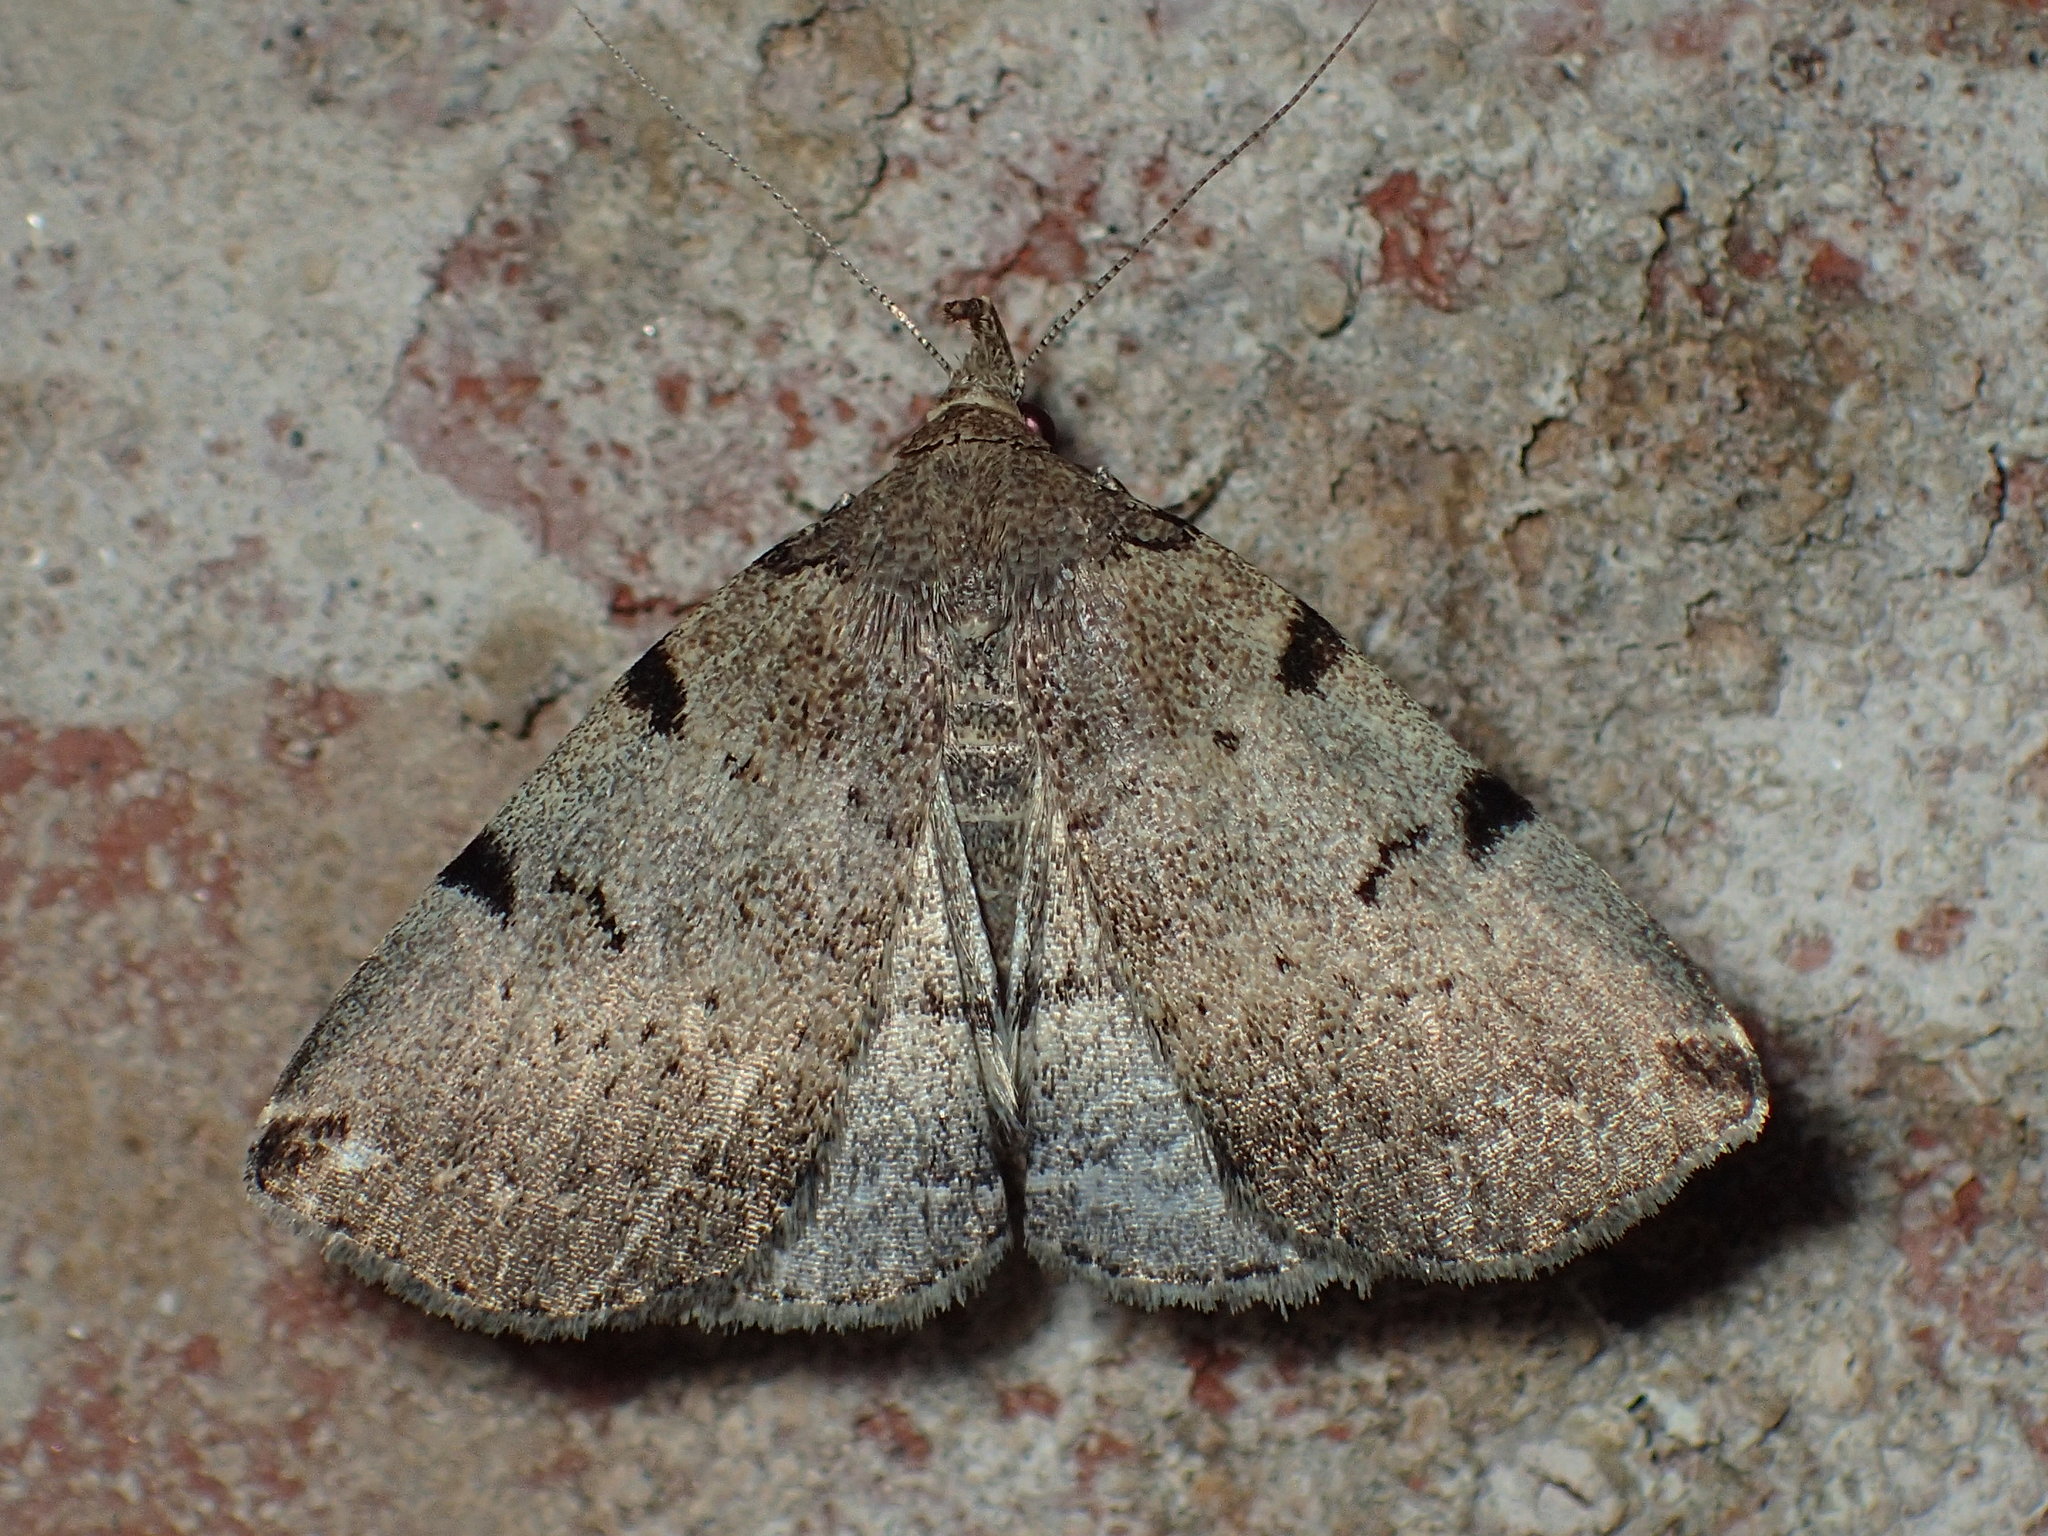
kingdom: Animalia
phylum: Arthropoda
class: Insecta
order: Lepidoptera
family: Erebidae
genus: Zanclognatha
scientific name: Zanclognatha lituralis
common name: Lettered fan-foot
